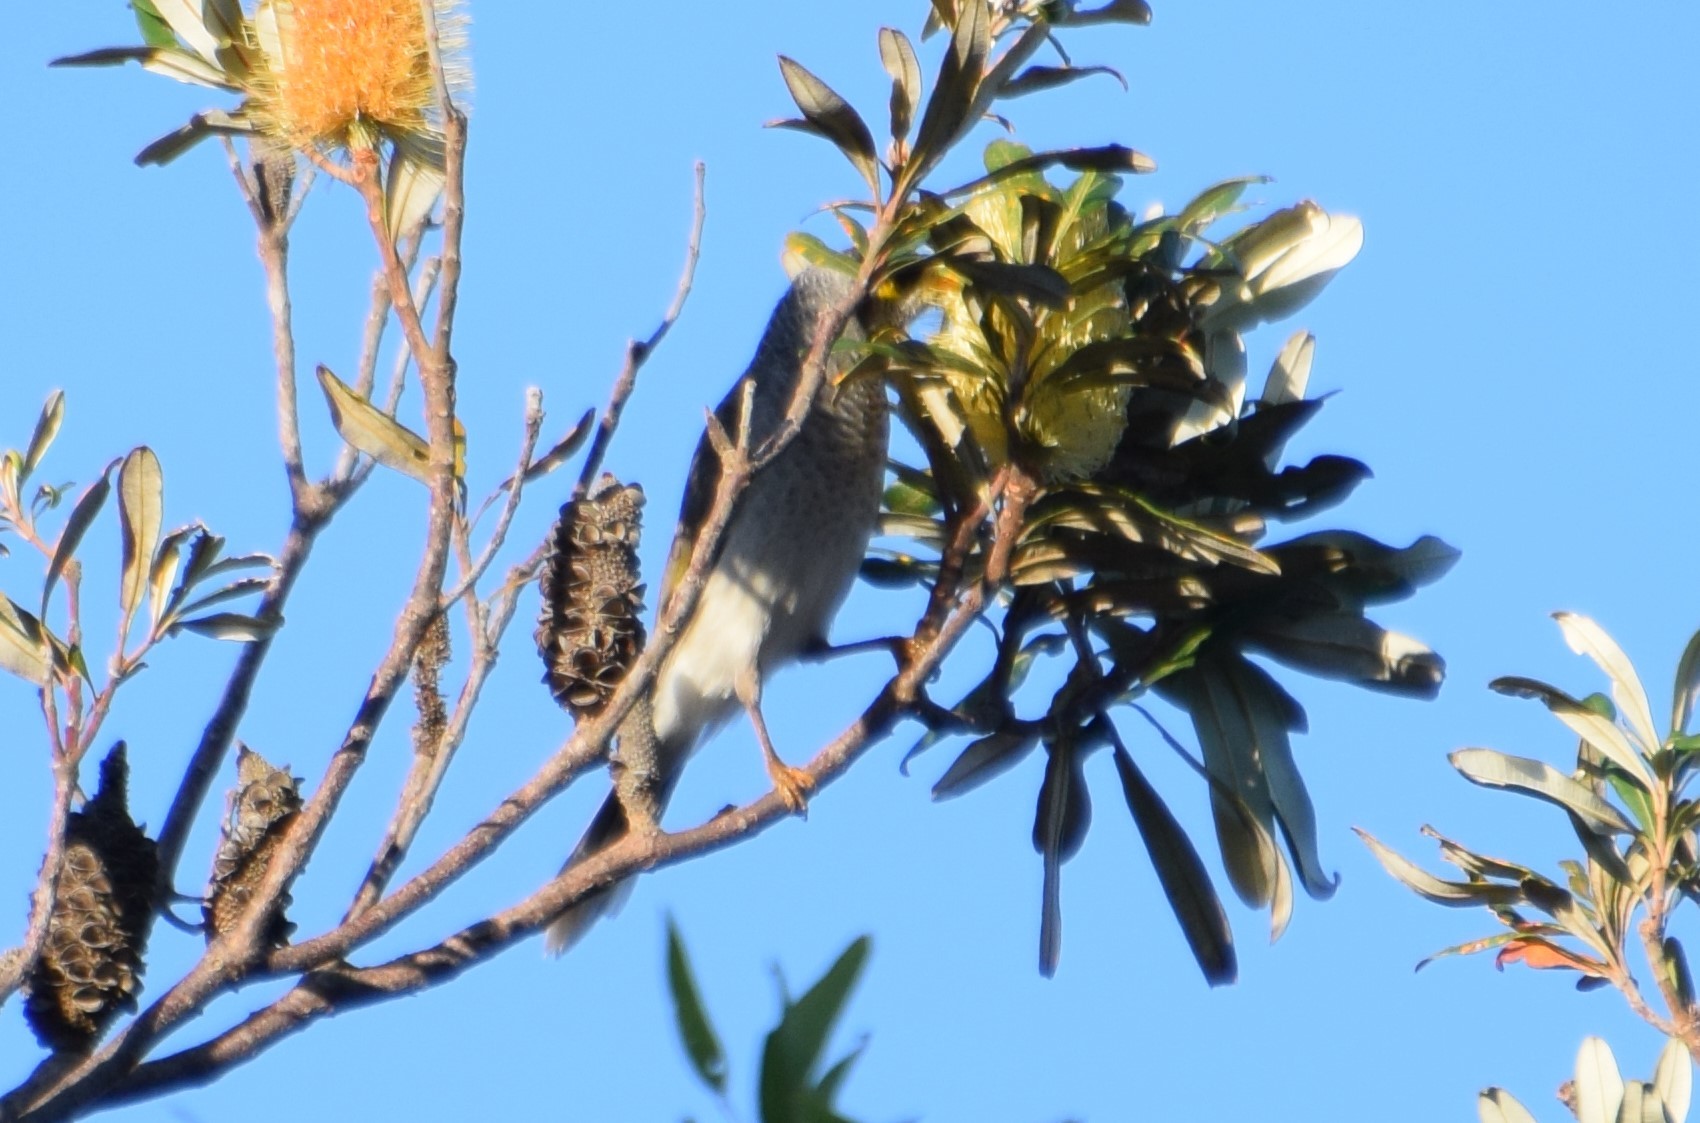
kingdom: Animalia
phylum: Chordata
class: Aves
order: Passeriformes
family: Meliphagidae
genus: Manorina
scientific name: Manorina melanocephala
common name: Noisy miner
